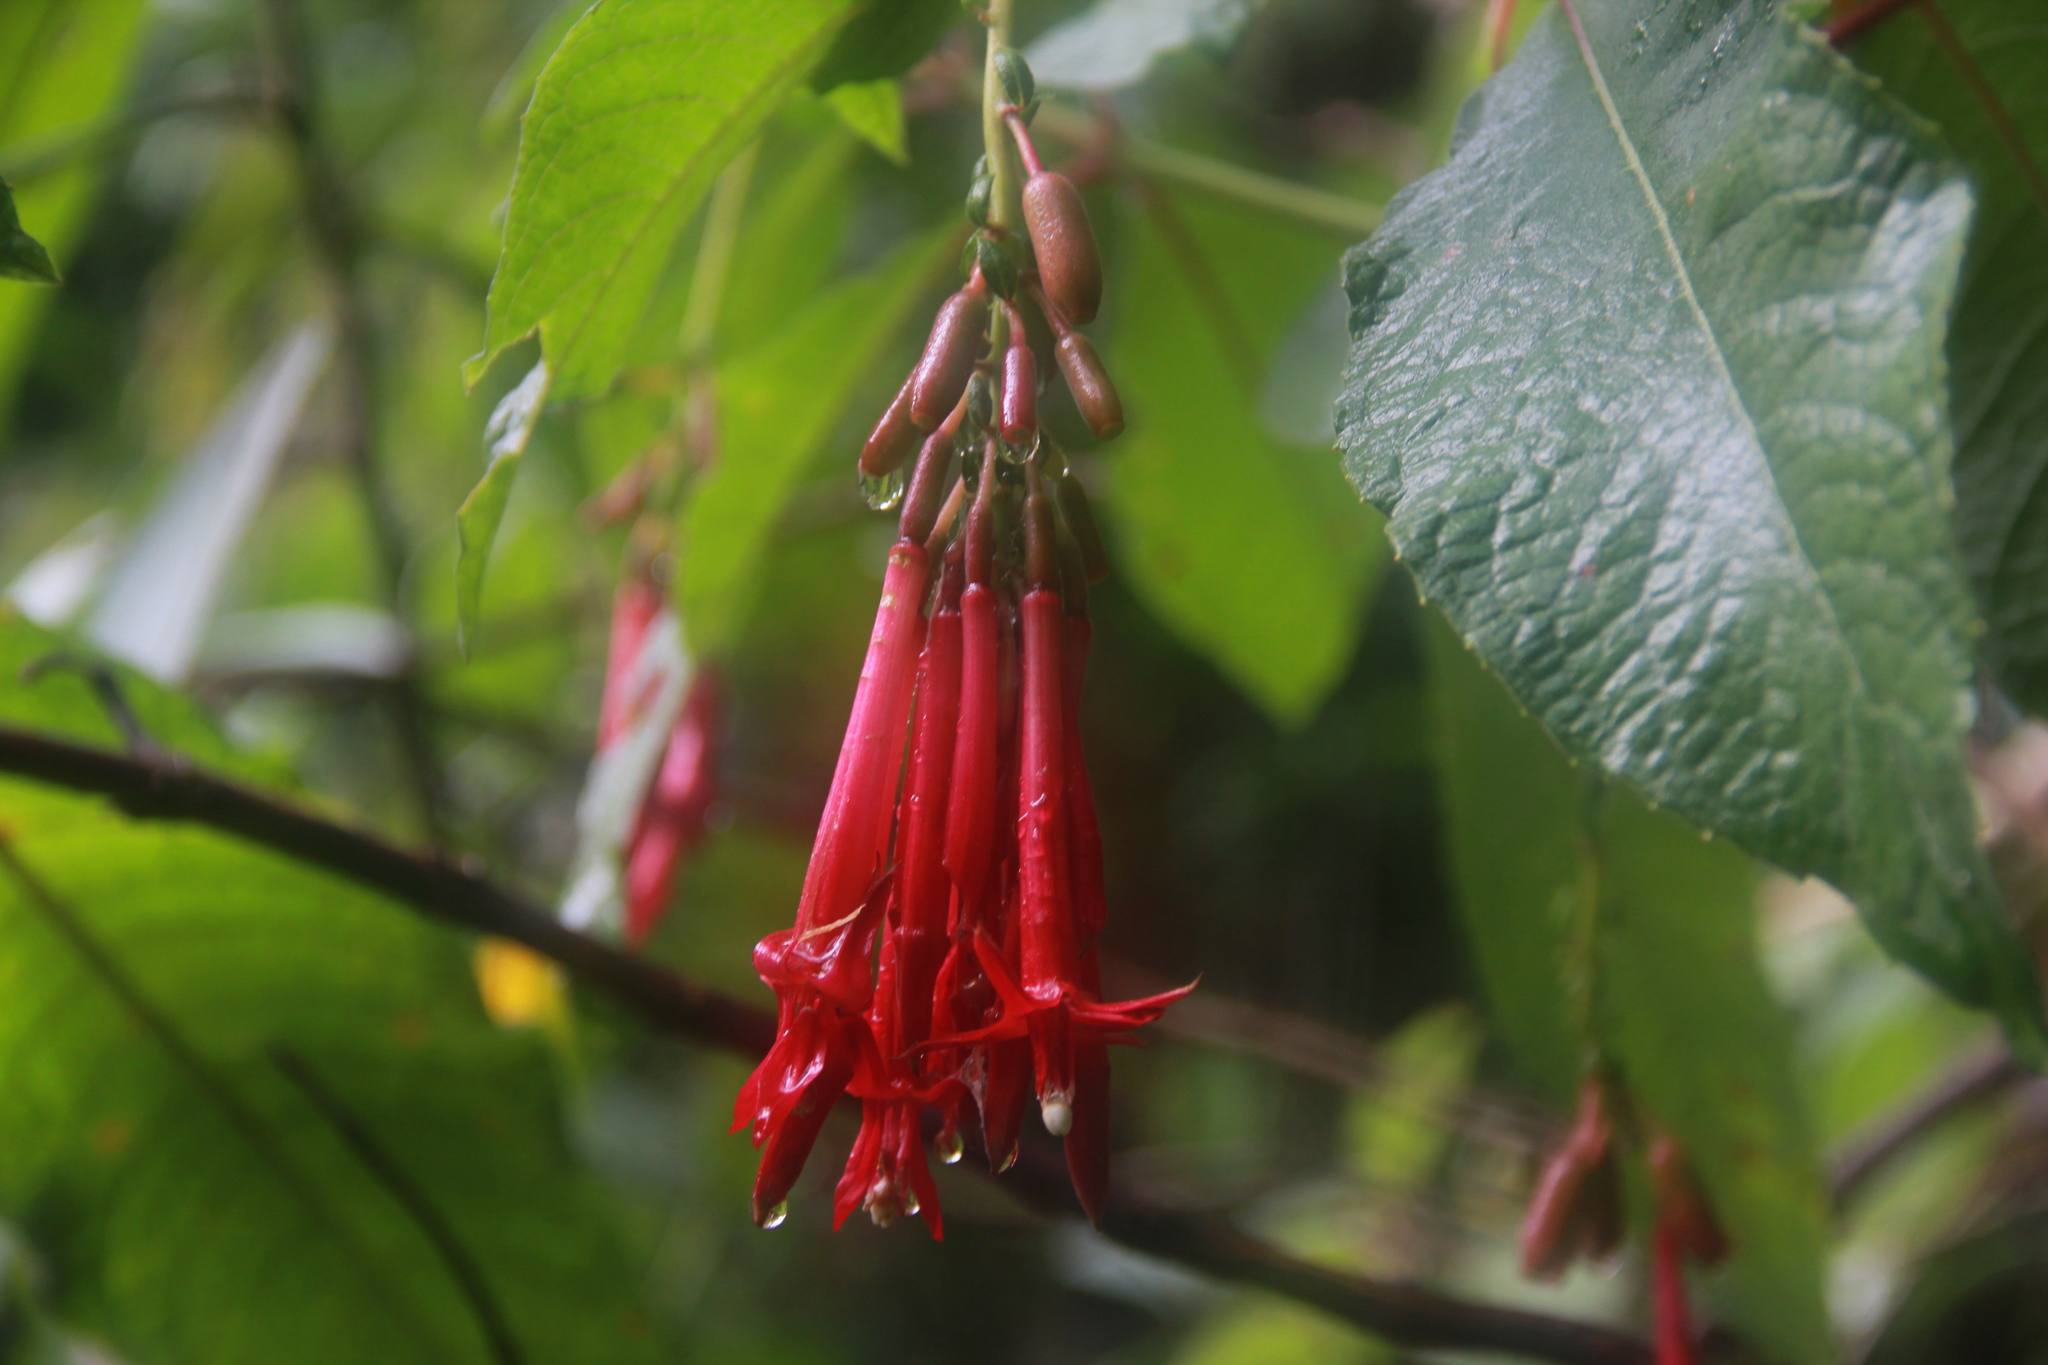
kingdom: Plantae
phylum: Tracheophyta
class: Magnoliopsida
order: Myrtales
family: Onagraceae
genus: Fuchsia
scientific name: Fuchsia boliviana
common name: Bolivian fuchsia
